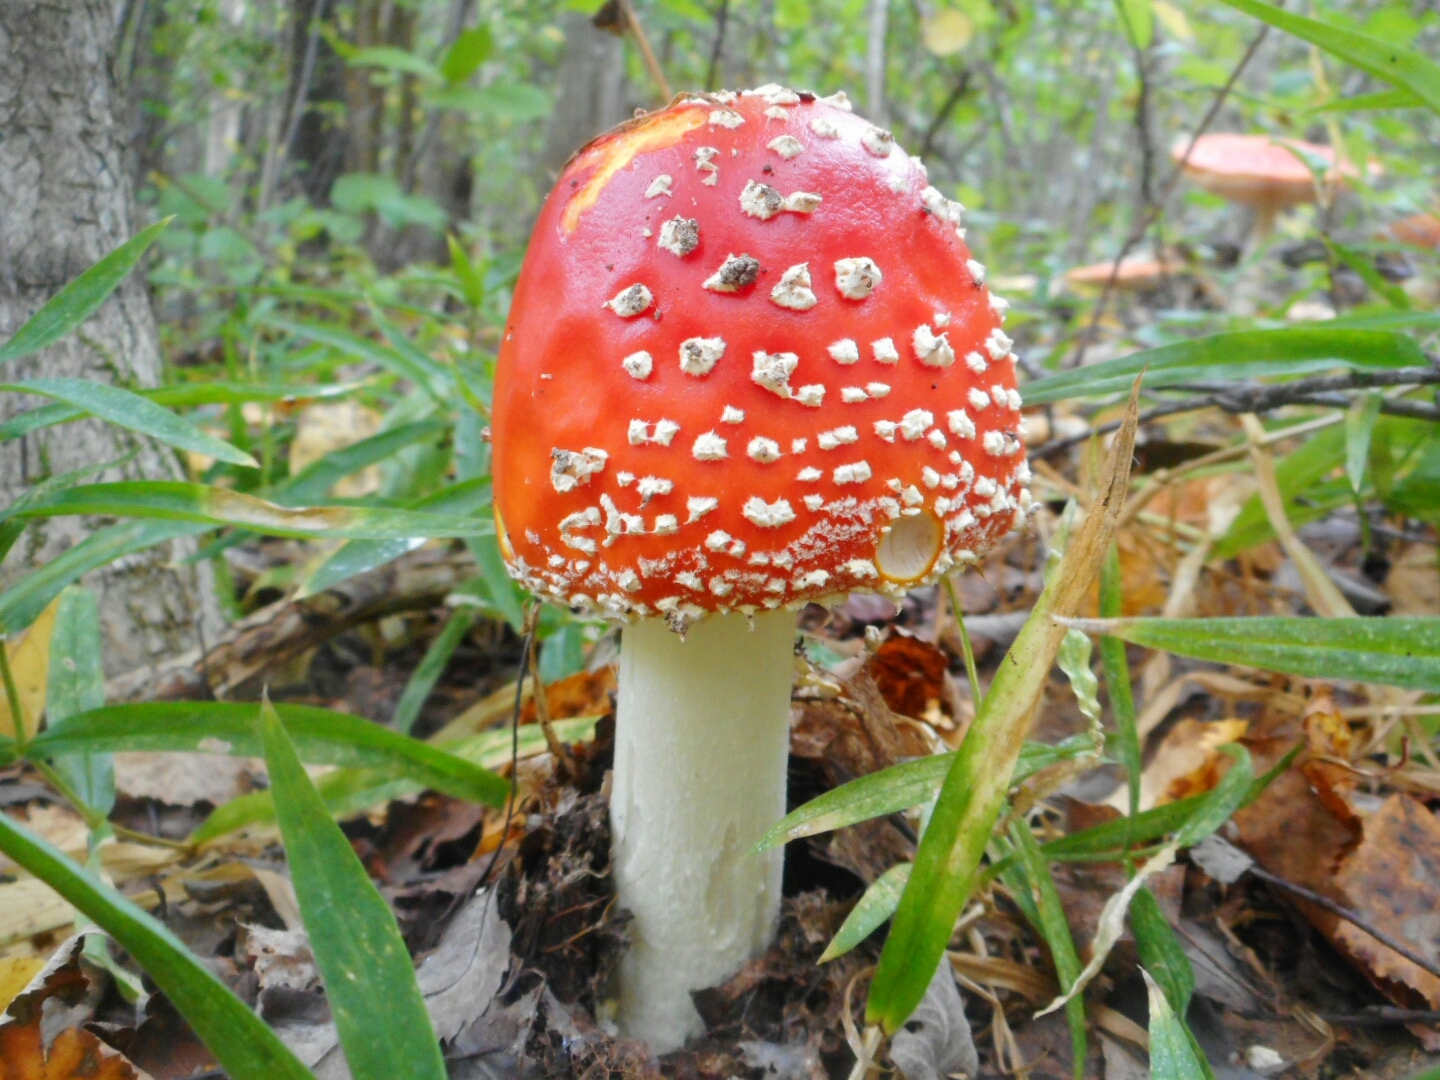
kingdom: Fungi
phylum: Basidiomycota
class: Agaricomycetes
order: Agaricales
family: Amanitaceae
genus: Amanita
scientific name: Amanita muscaria
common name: Fly agaric
